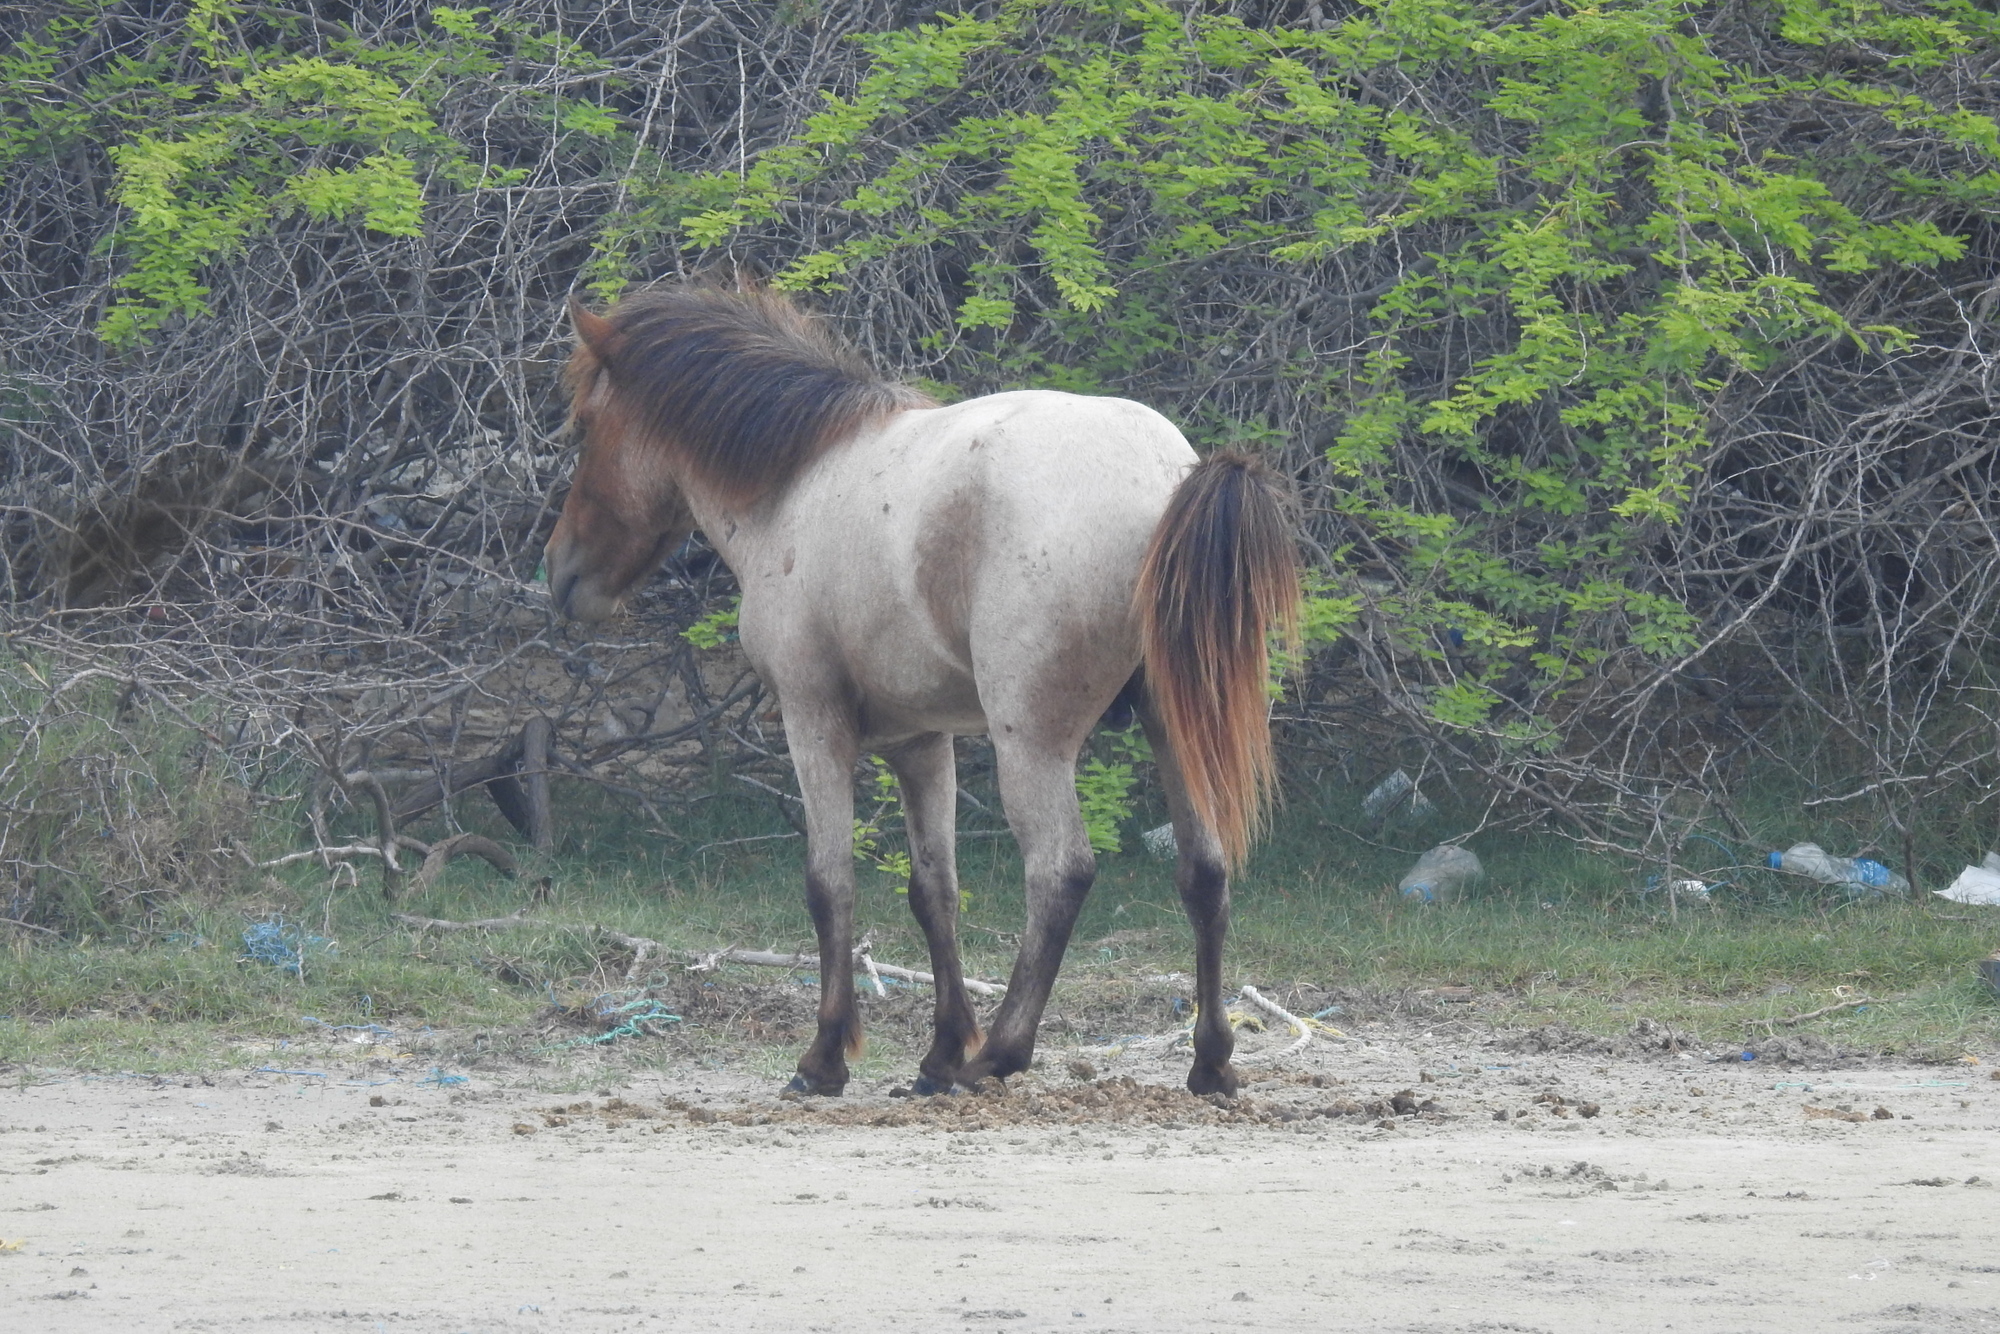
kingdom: Animalia
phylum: Chordata
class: Mammalia
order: Perissodactyla
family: Equidae
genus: Equus
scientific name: Equus caballus
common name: Horse
